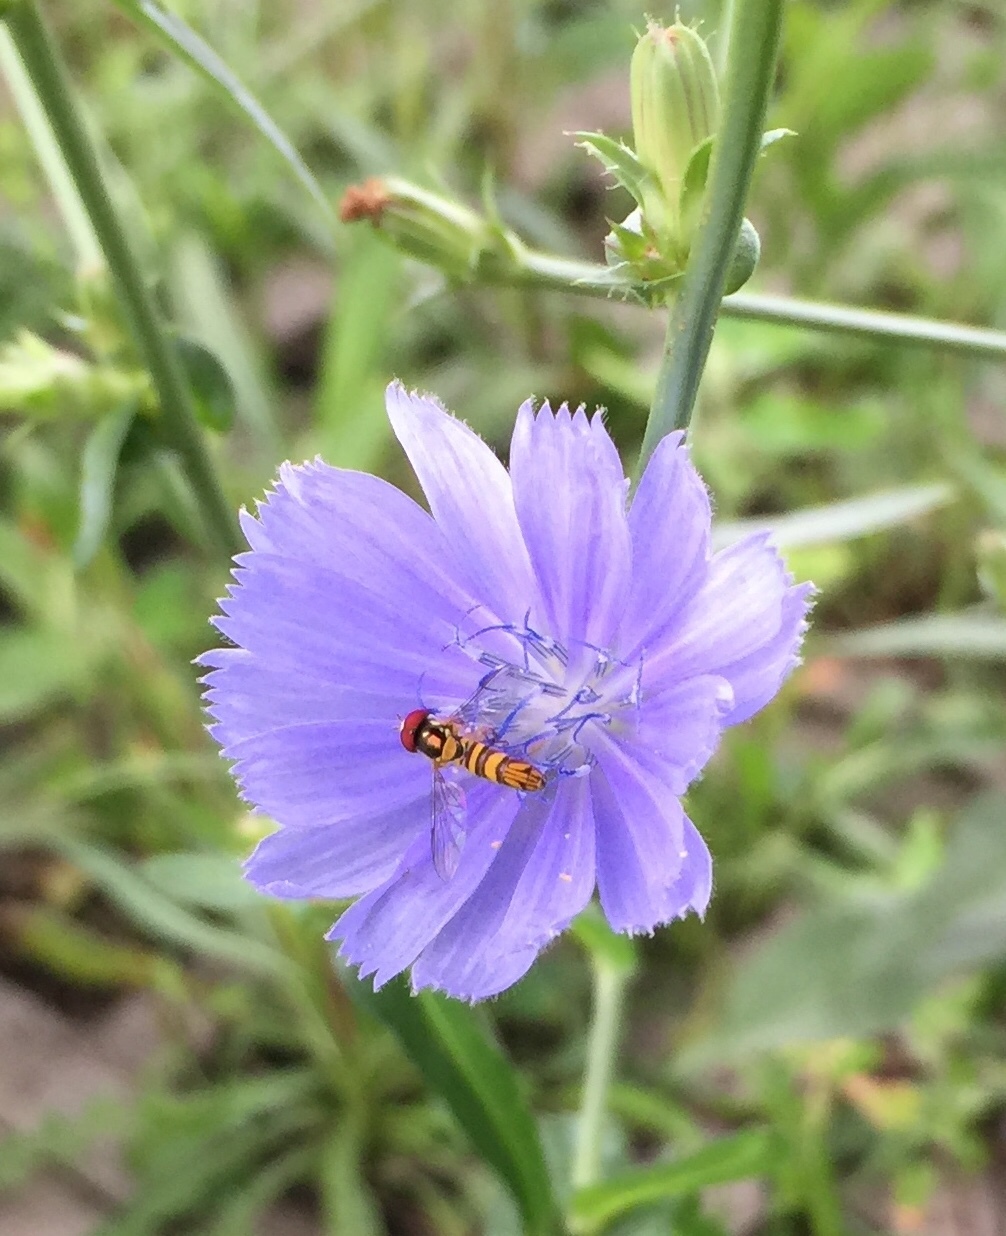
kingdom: Animalia
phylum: Arthropoda
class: Insecta
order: Diptera
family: Syrphidae
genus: Allograpta
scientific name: Allograpta obliqua
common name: Common oblique syrphid
